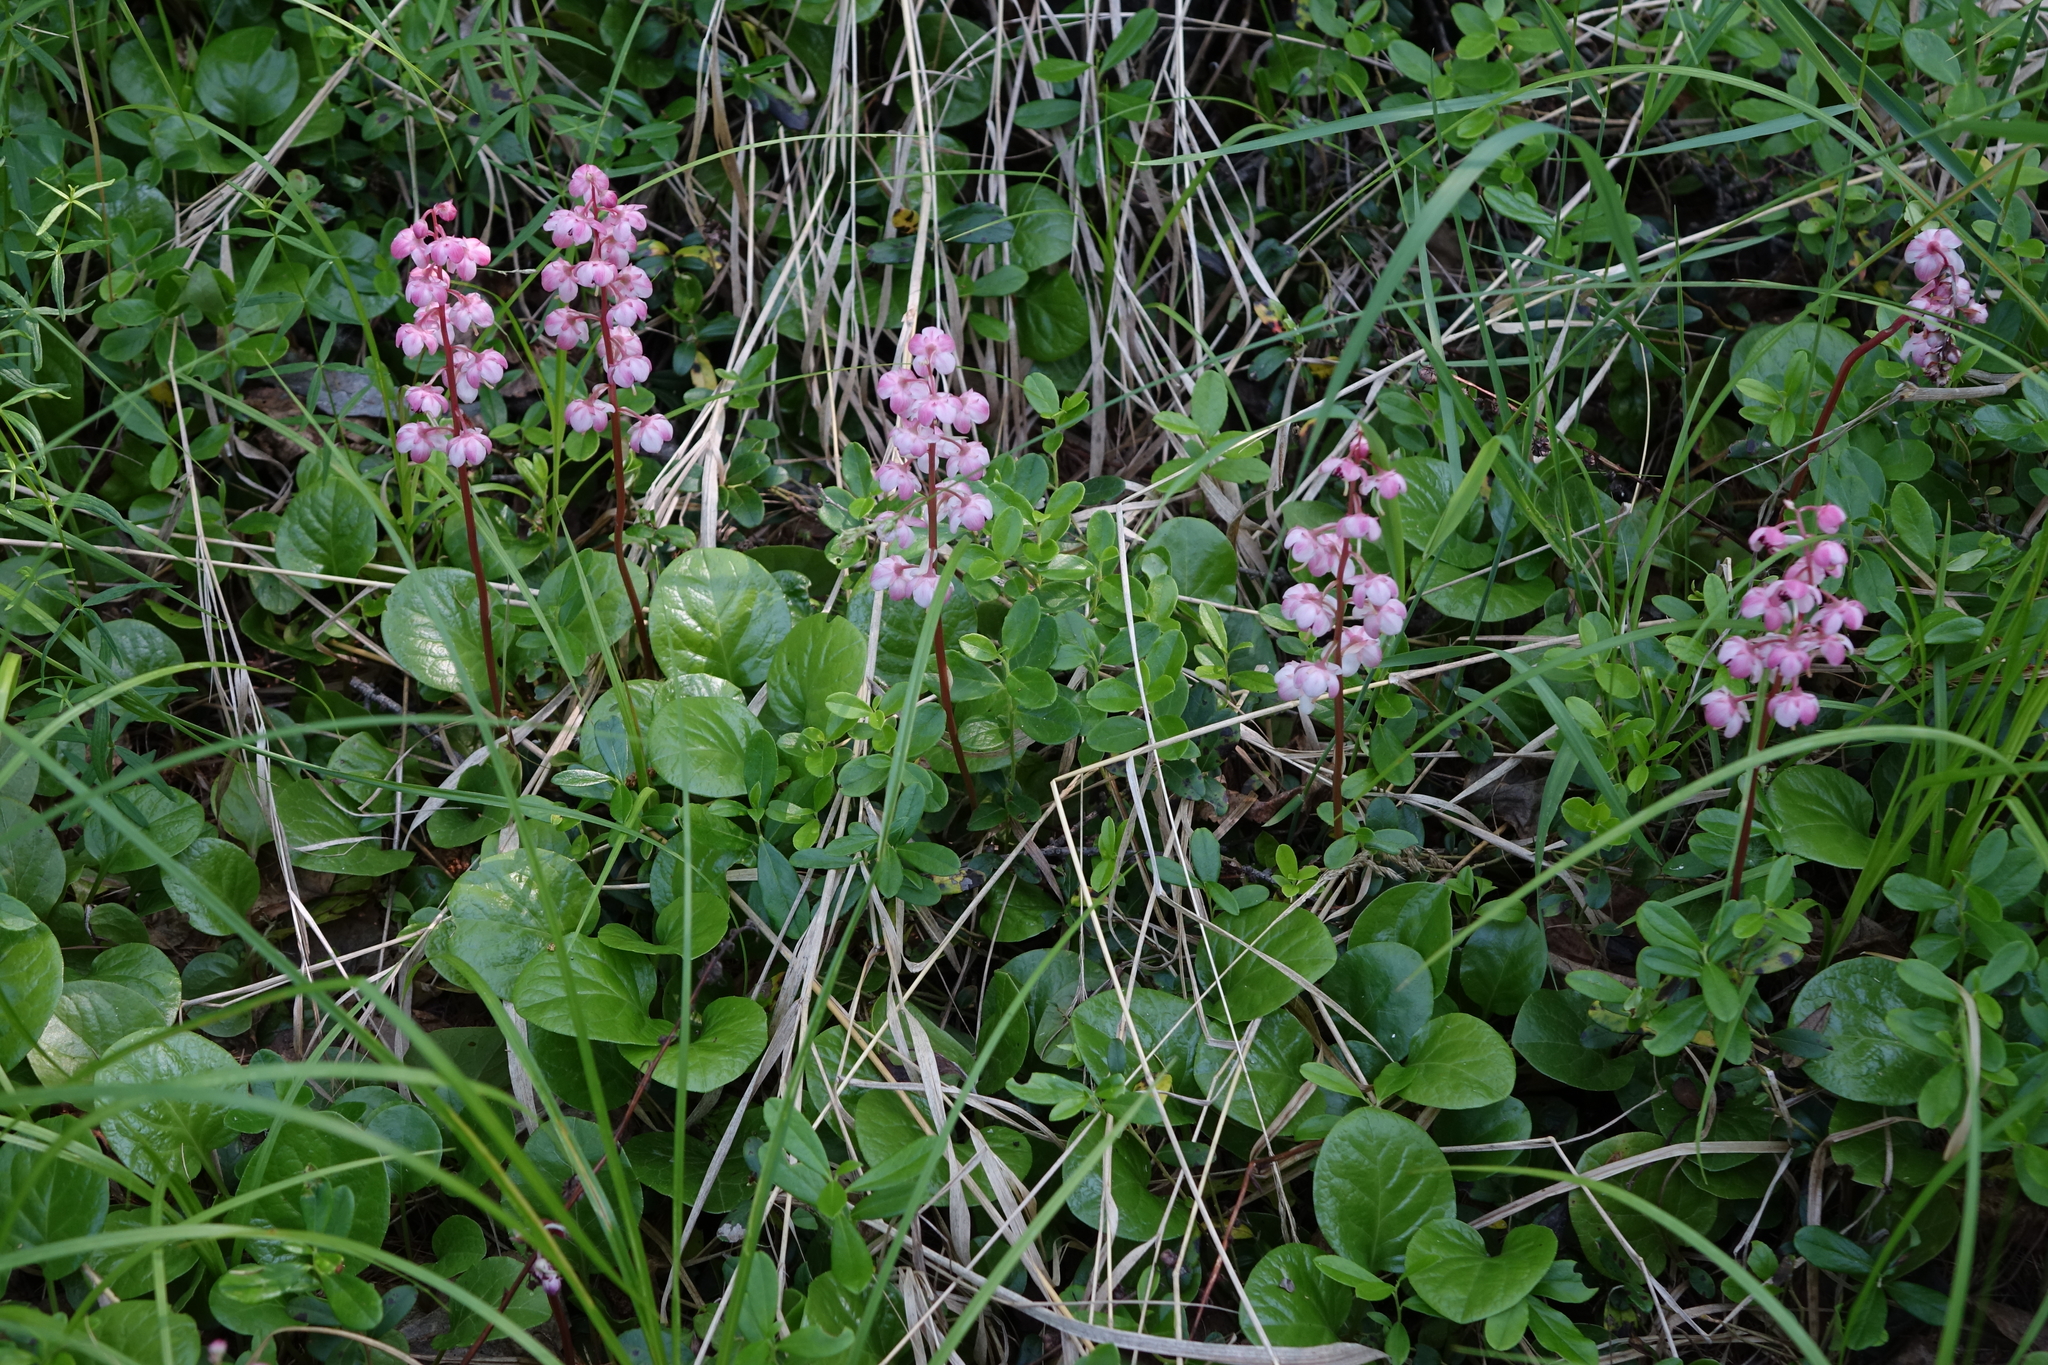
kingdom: Plantae
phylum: Tracheophyta
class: Magnoliopsida
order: Ericales
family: Ericaceae
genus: Pyrola
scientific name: Pyrola asarifolia
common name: Bog wintergreen
